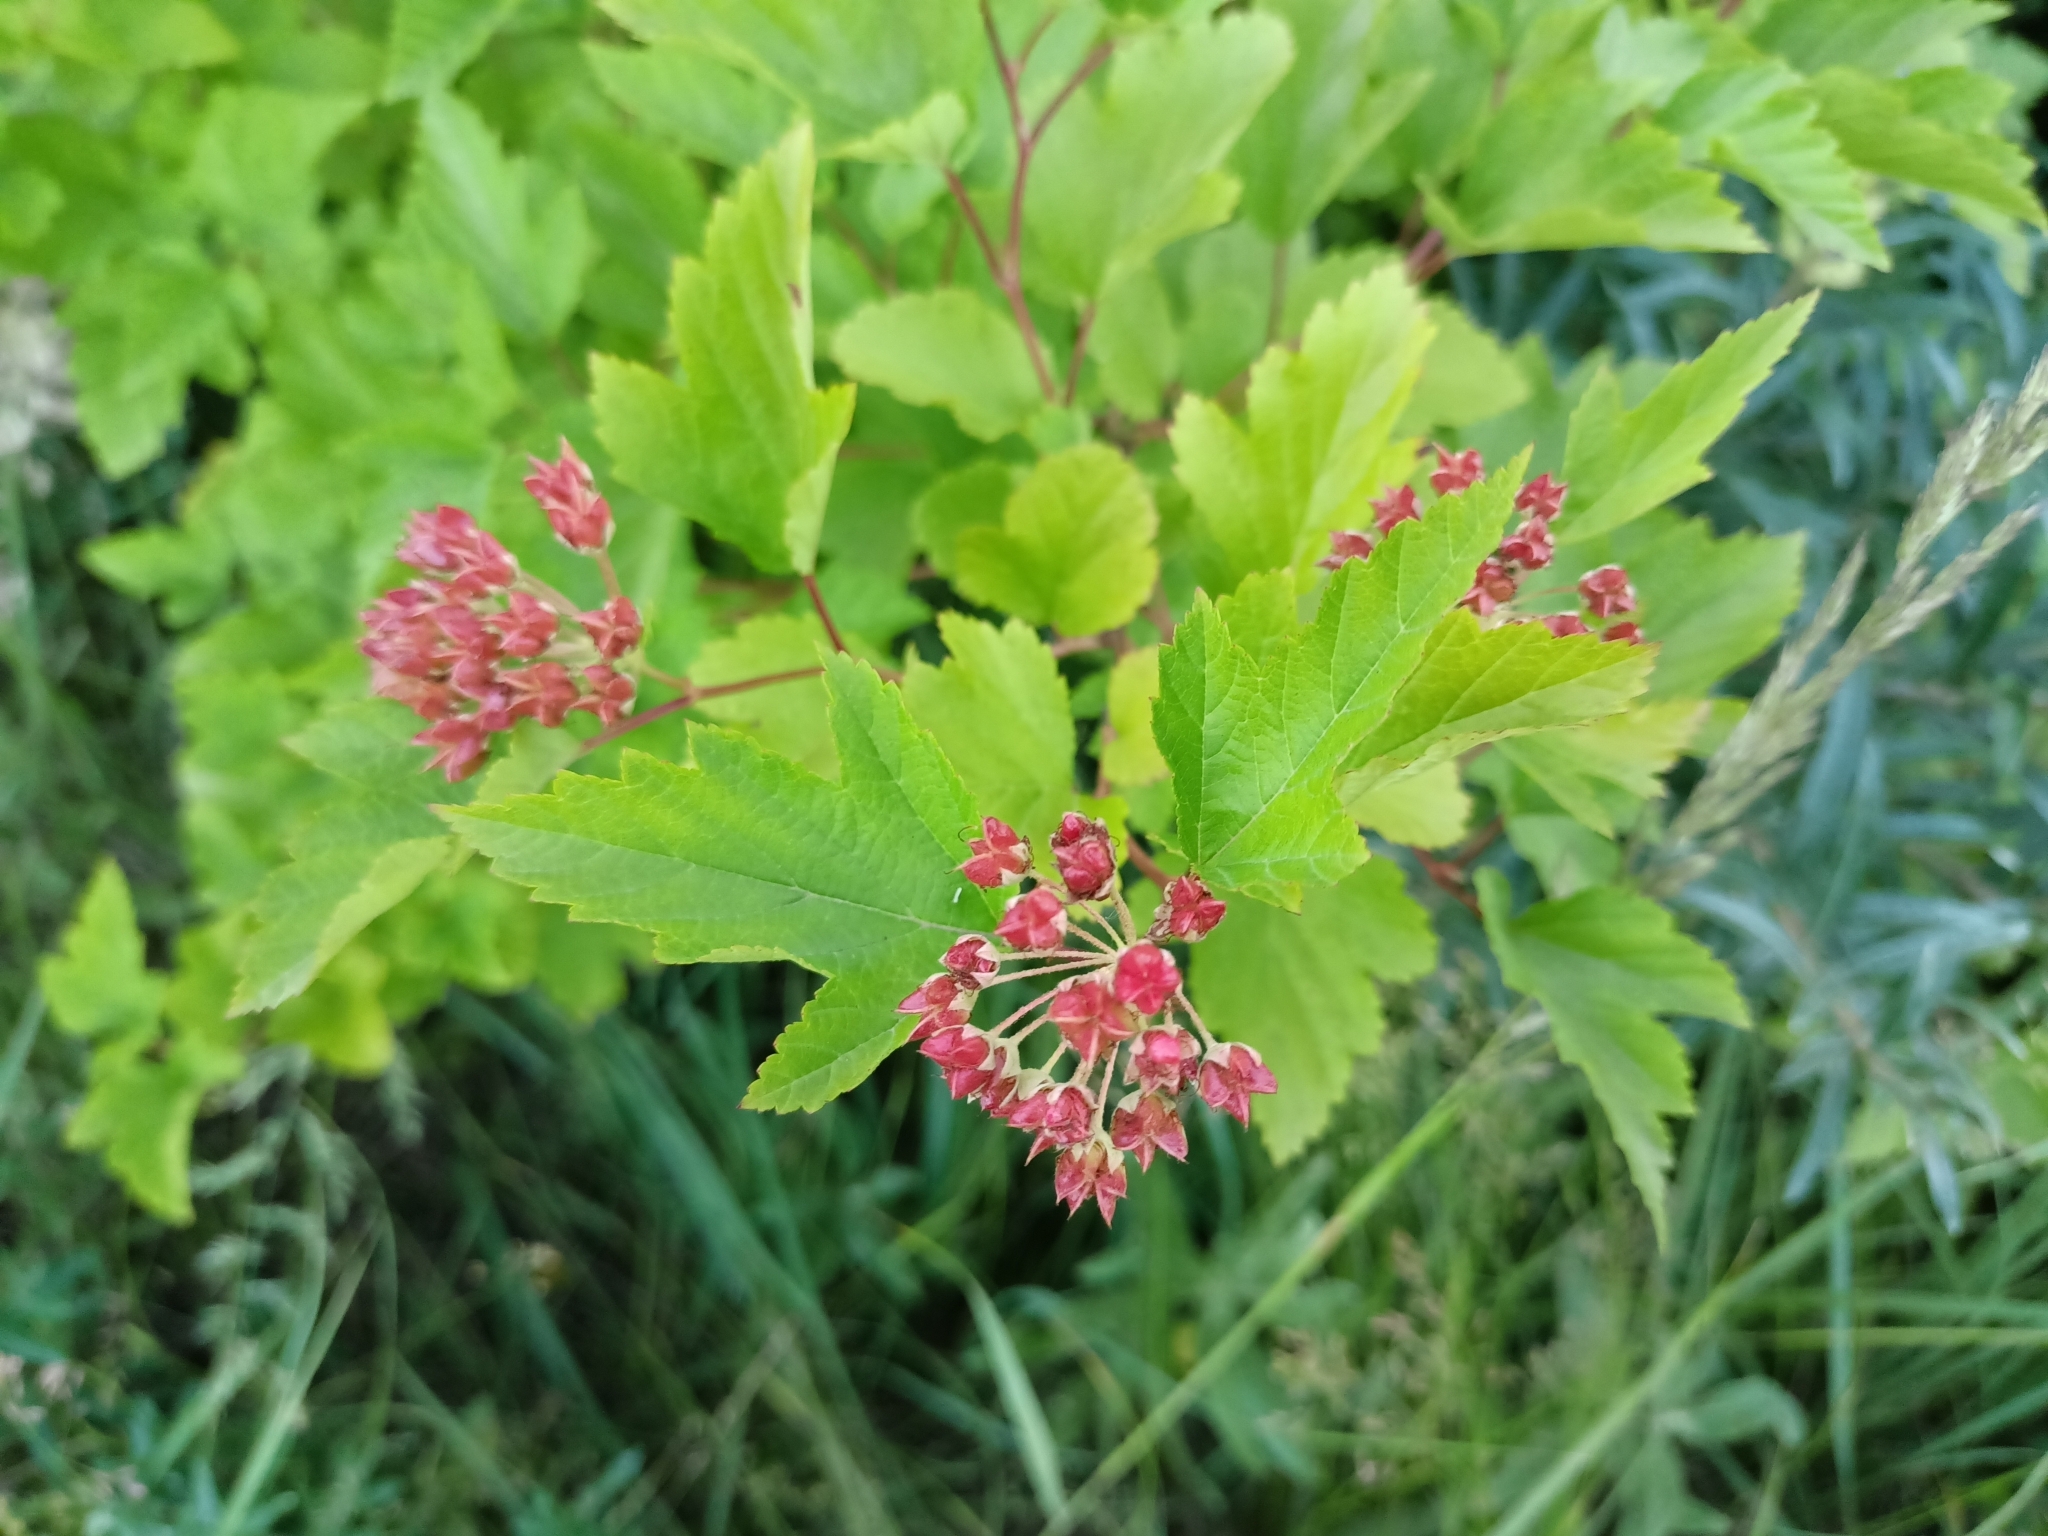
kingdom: Plantae
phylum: Tracheophyta
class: Magnoliopsida
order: Rosales
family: Rosaceae
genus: Physocarpus
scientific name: Physocarpus opulifolius
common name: Ninebark
